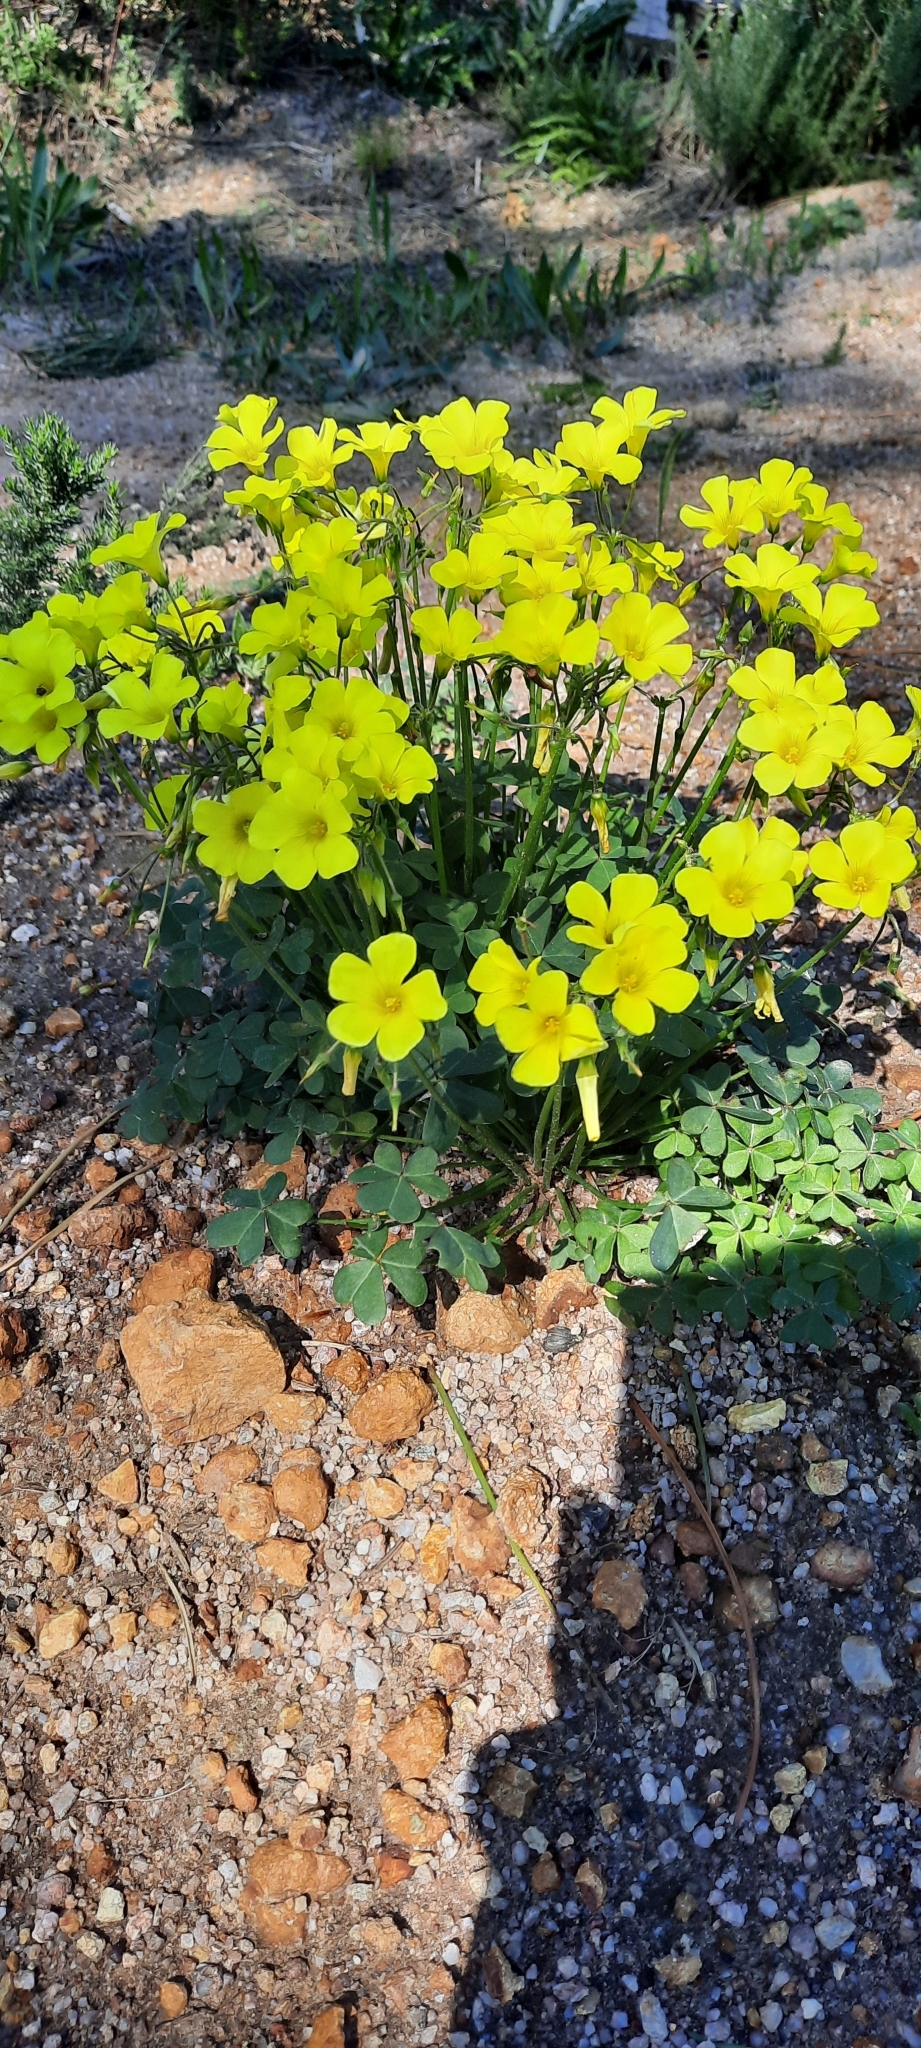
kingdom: Plantae
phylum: Tracheophyta
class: Magnoliopsida
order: Oxalidales
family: Oxalidaceae
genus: Oxalis
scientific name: Oxalis pes-caprae
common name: Bermuda-buttercup
